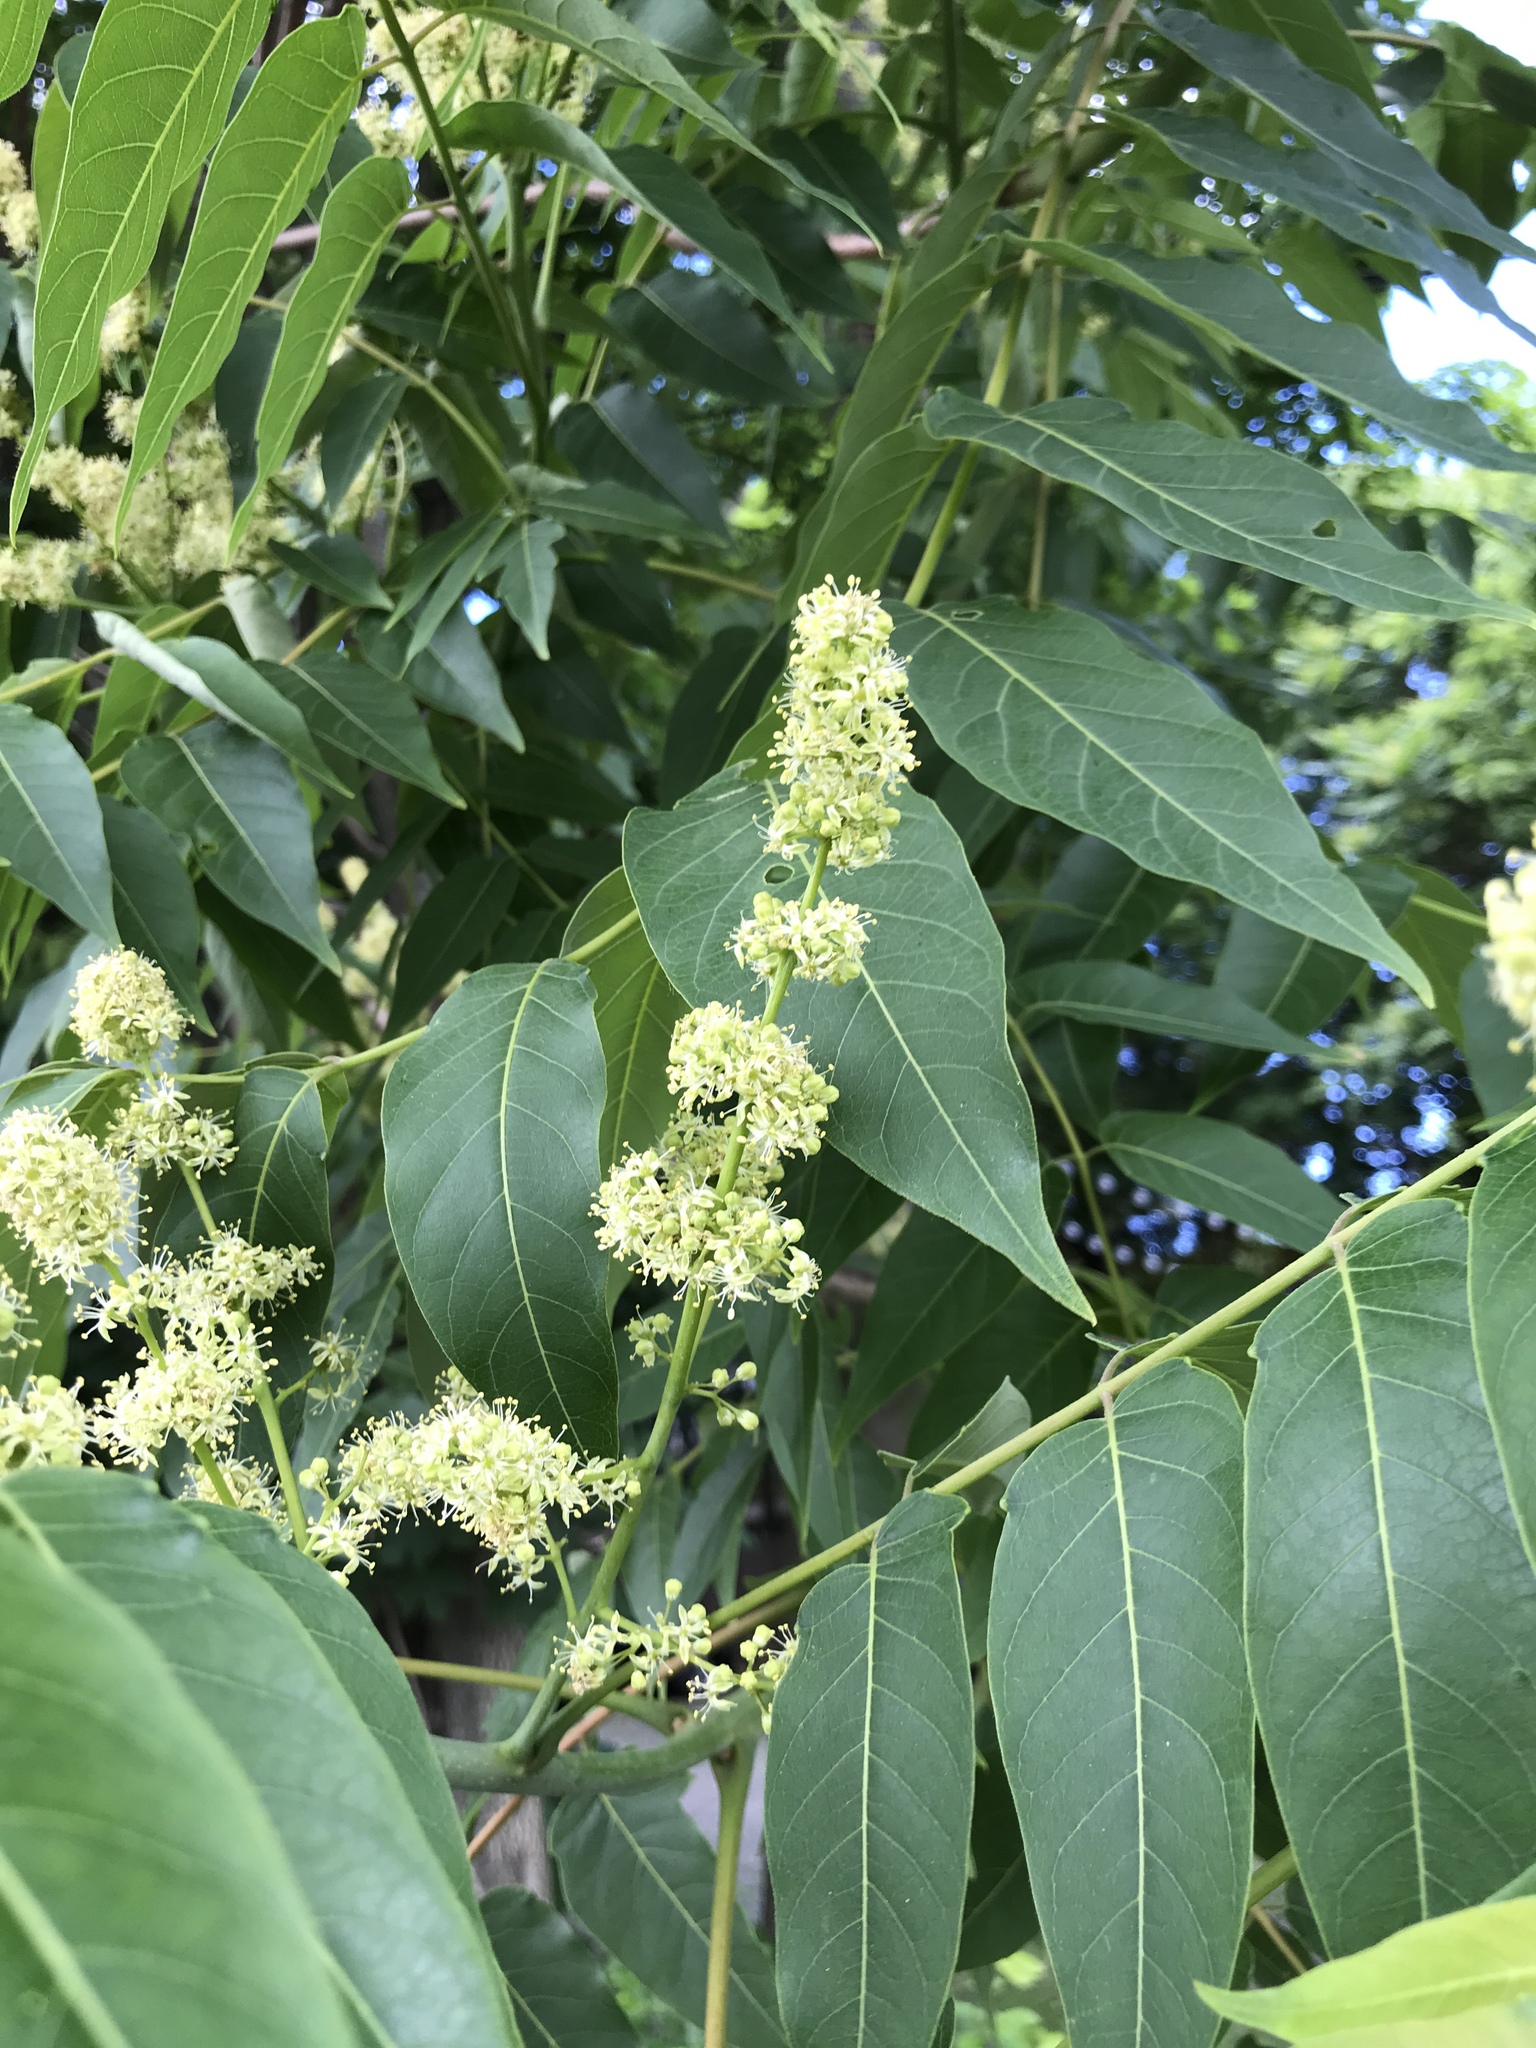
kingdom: Plantae
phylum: Tracheophyta
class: Magnoliopsida
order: Sapindales
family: Simaroubaceae
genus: Ailanthus
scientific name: Ailanthus altissima
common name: Tree-of-heaven
